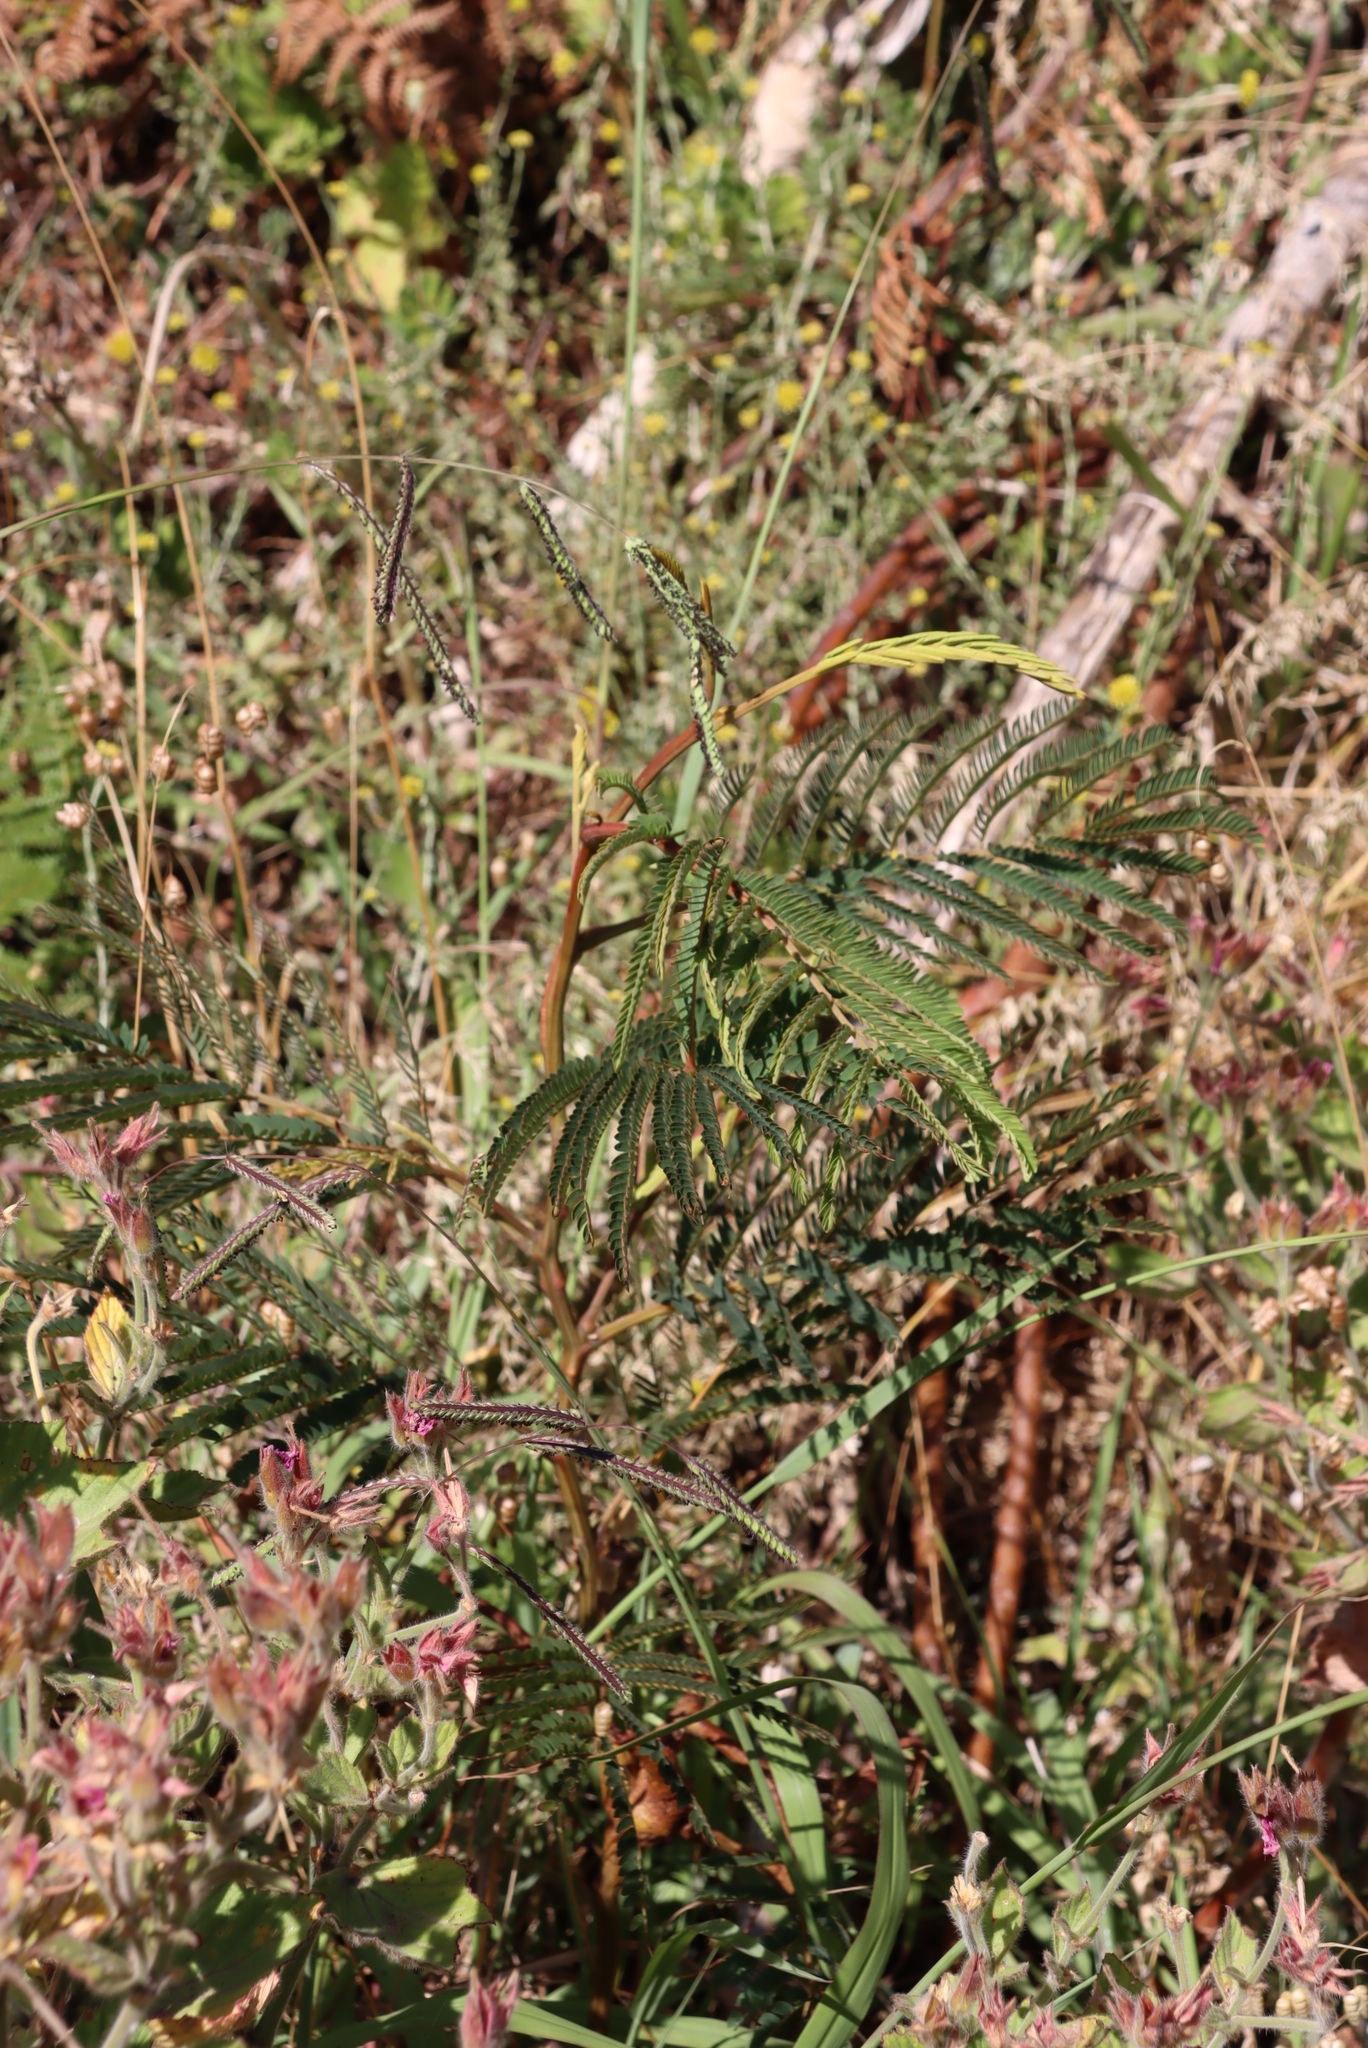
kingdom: Plantae
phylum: Tracheophyta
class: Magnoliopsida
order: Fabales
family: Fabaceae
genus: Paraserianthes
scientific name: Paraserianthes lophantha
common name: Plume albizia
